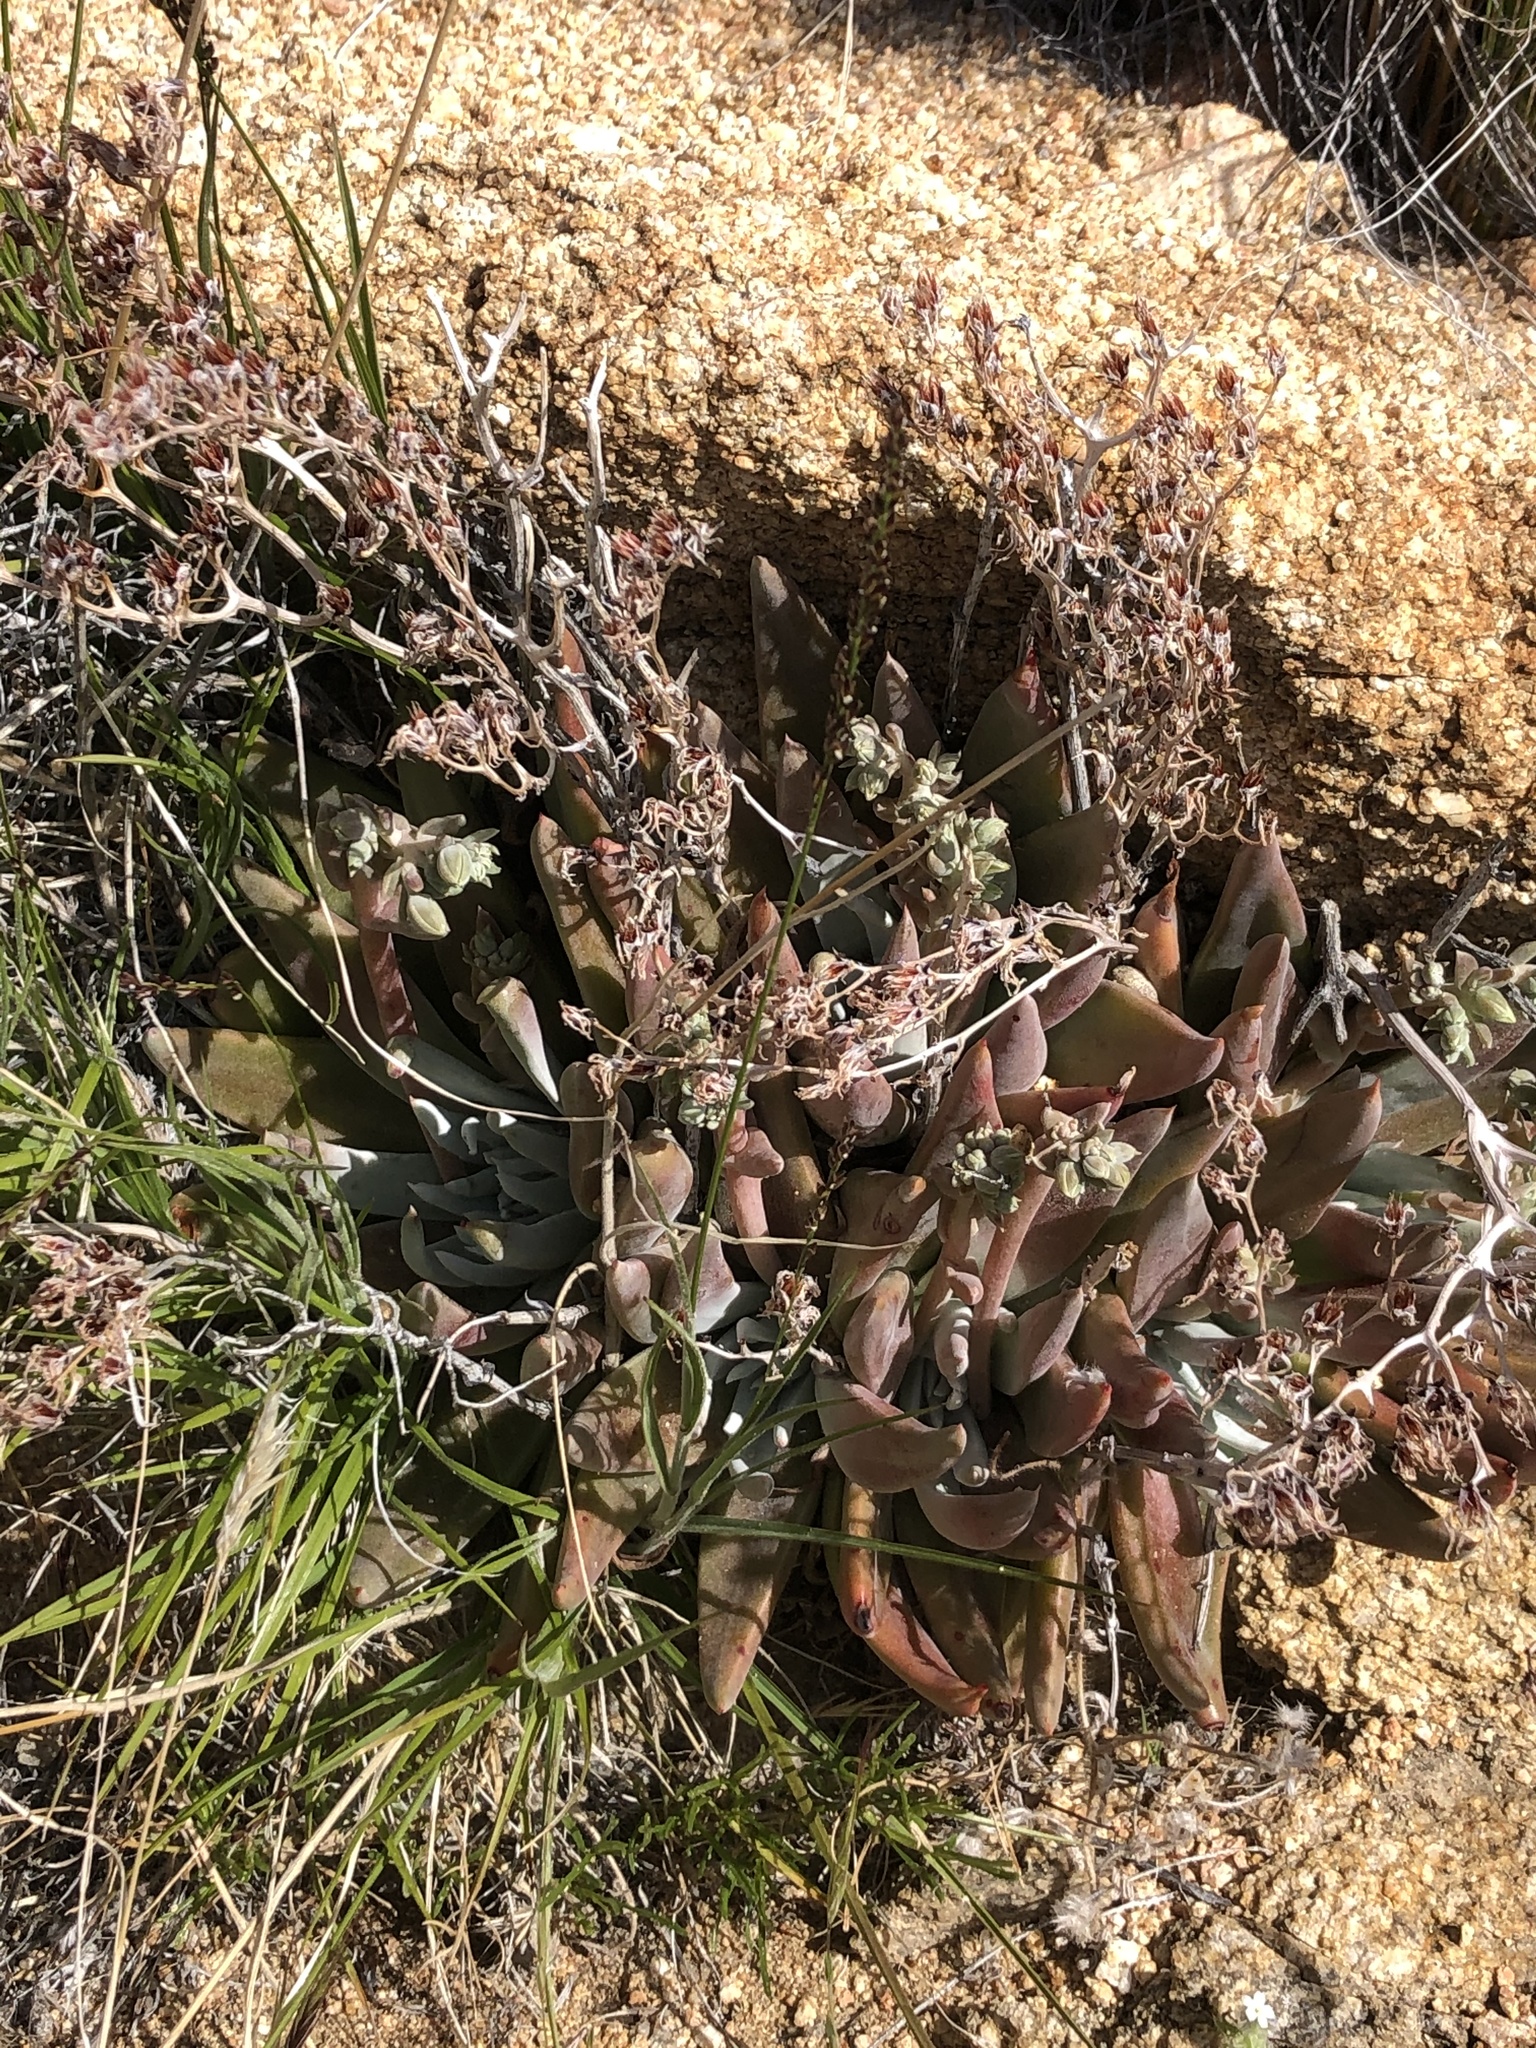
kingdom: Plantae
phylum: Tracheophyta
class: Magnoliopsida
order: Saxifragales
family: Crassulaceae
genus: Dudleya
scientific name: Dudleya calcicola
